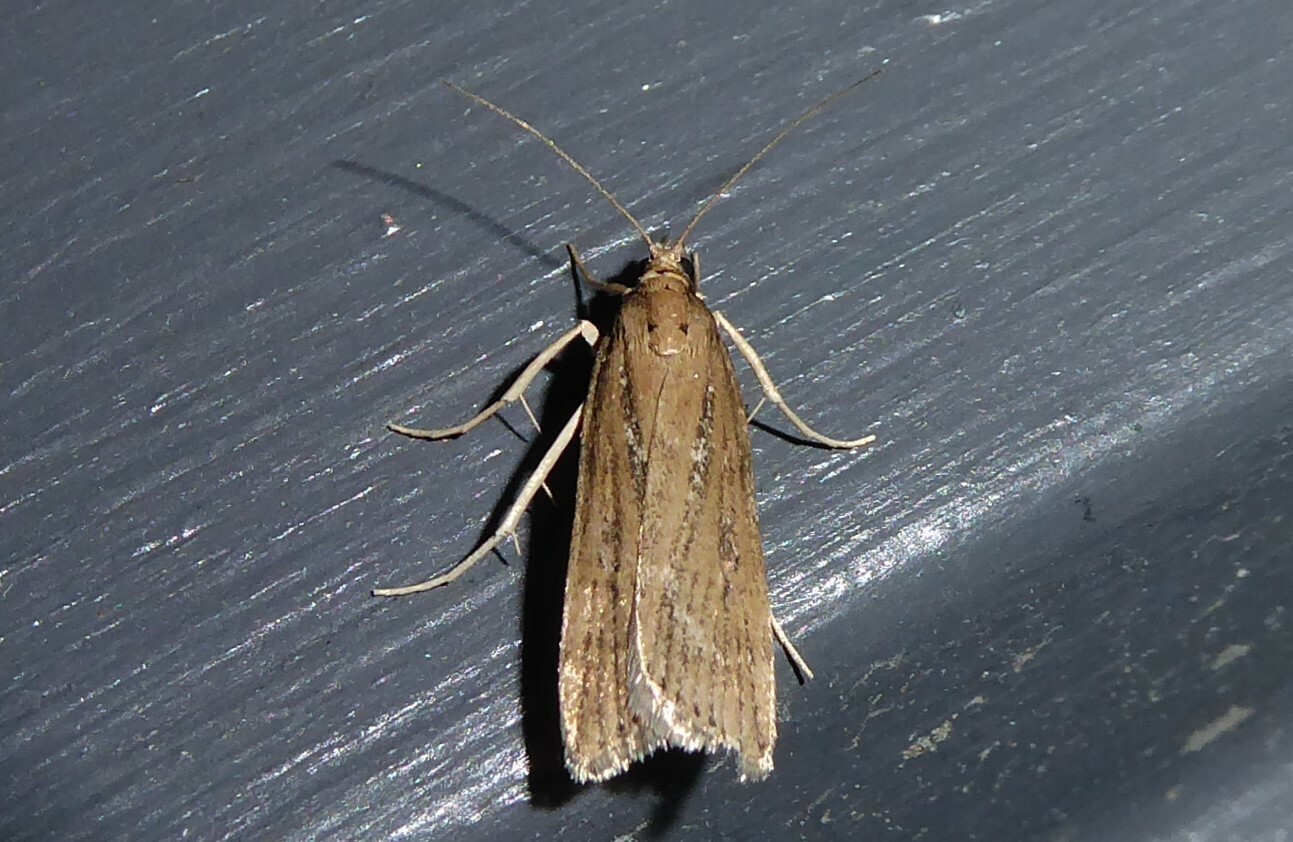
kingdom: Animalia
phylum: Arthropoda
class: Insecta
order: Lepidoptera
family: Crambidae
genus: Eudonia
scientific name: Eudonia octophora
